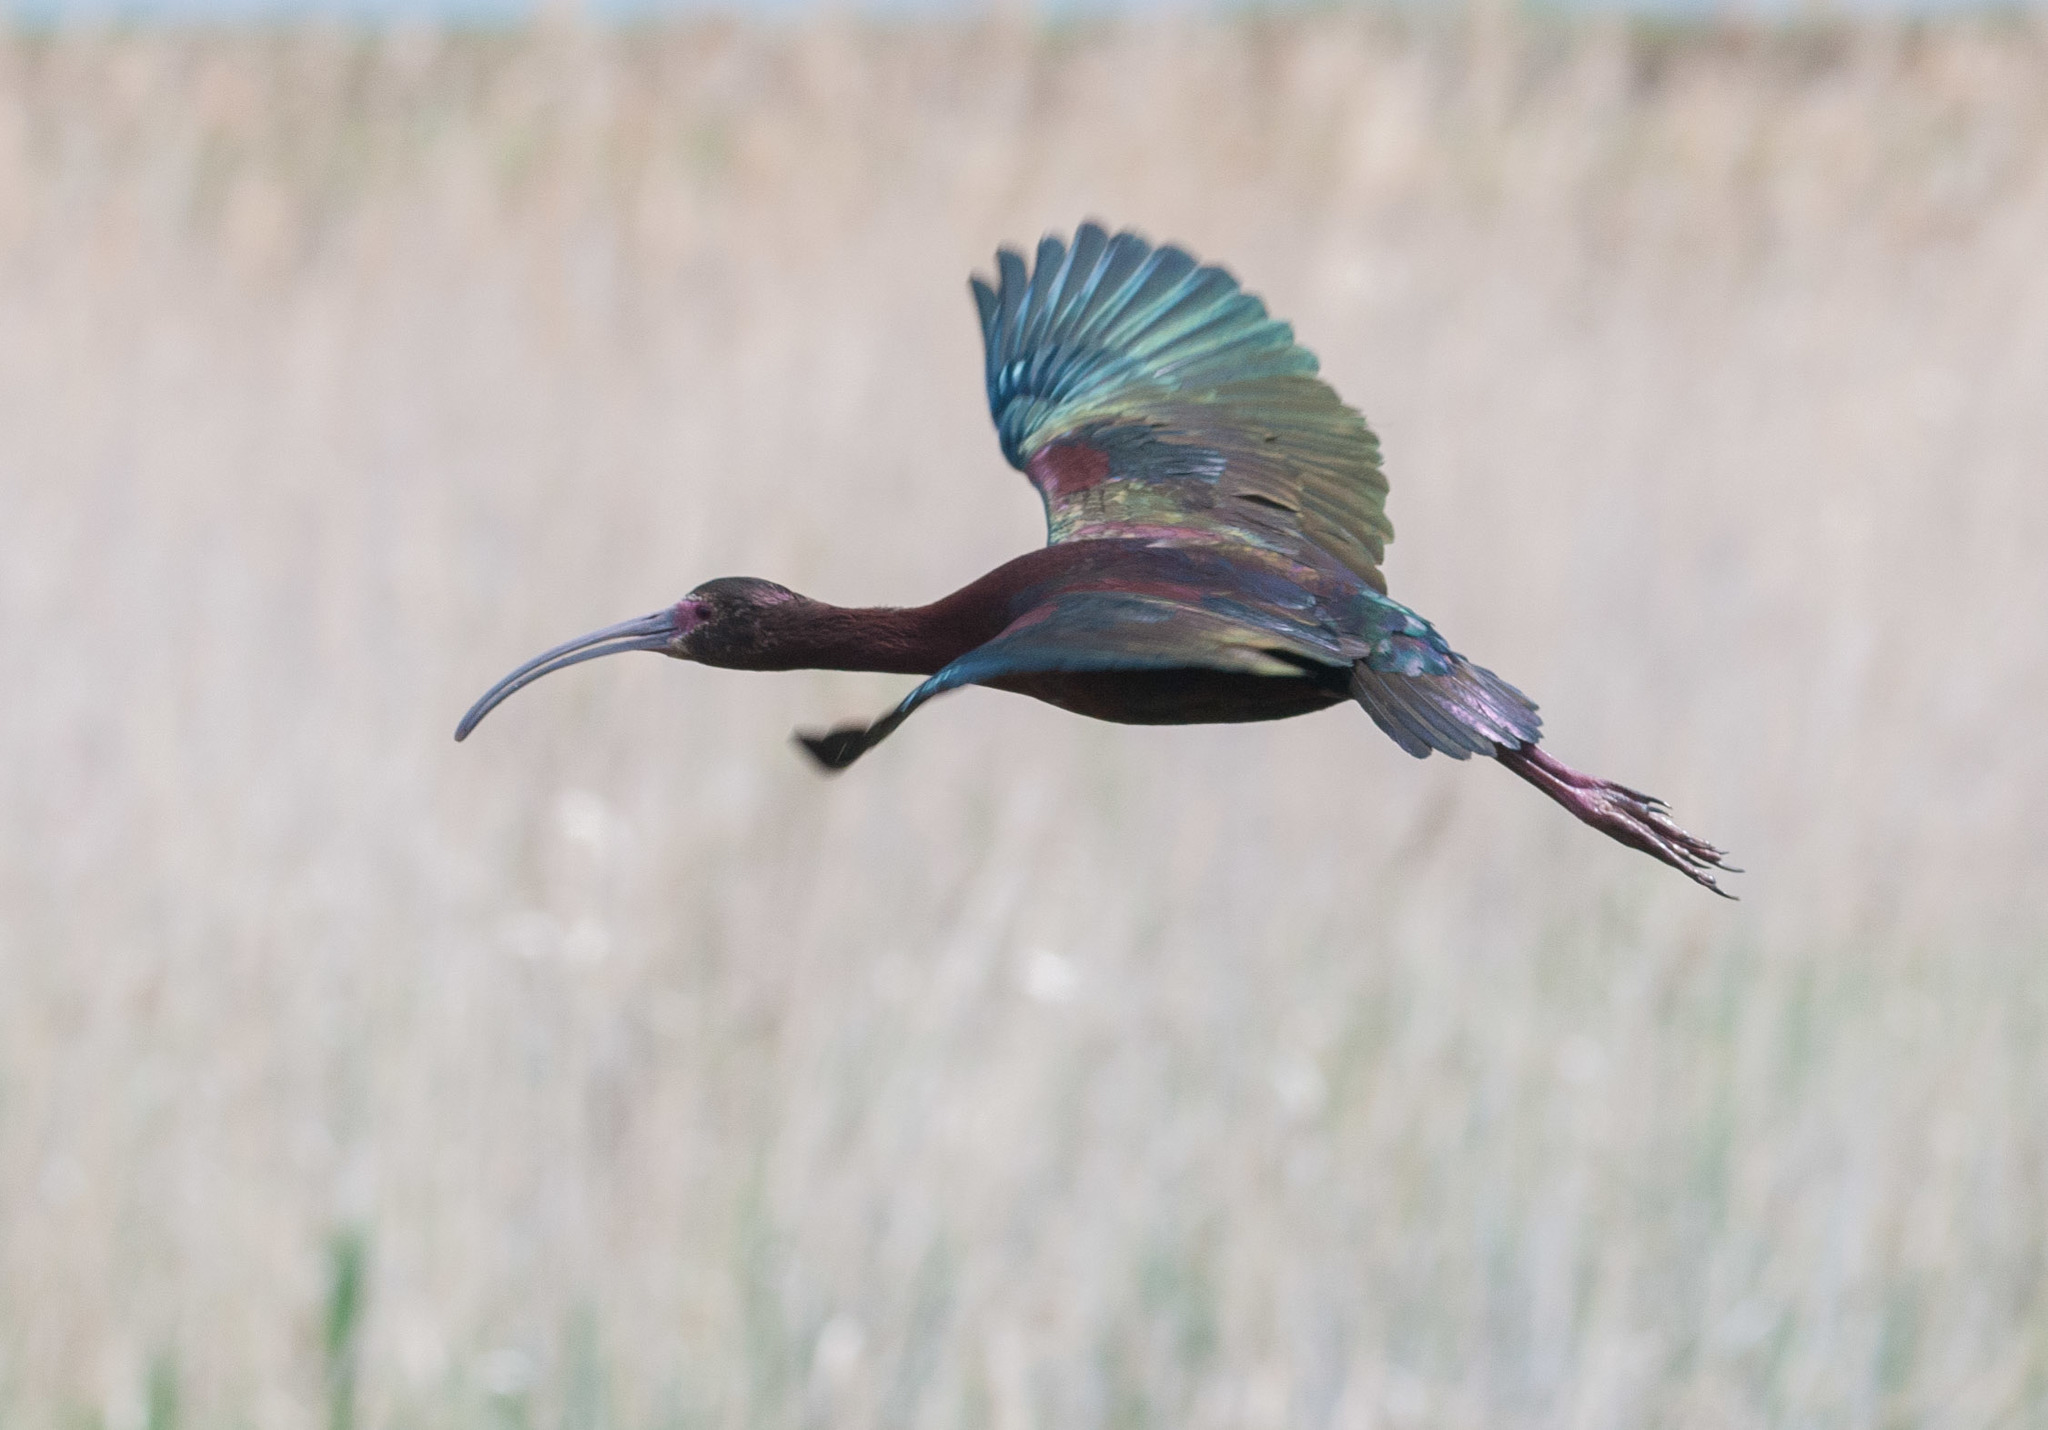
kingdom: Animalia
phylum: Chordata
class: Aves
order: Pelecaniformes
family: Threskiornithidae
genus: Plegadis
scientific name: Plegadis chihi
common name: White-faced ibis
